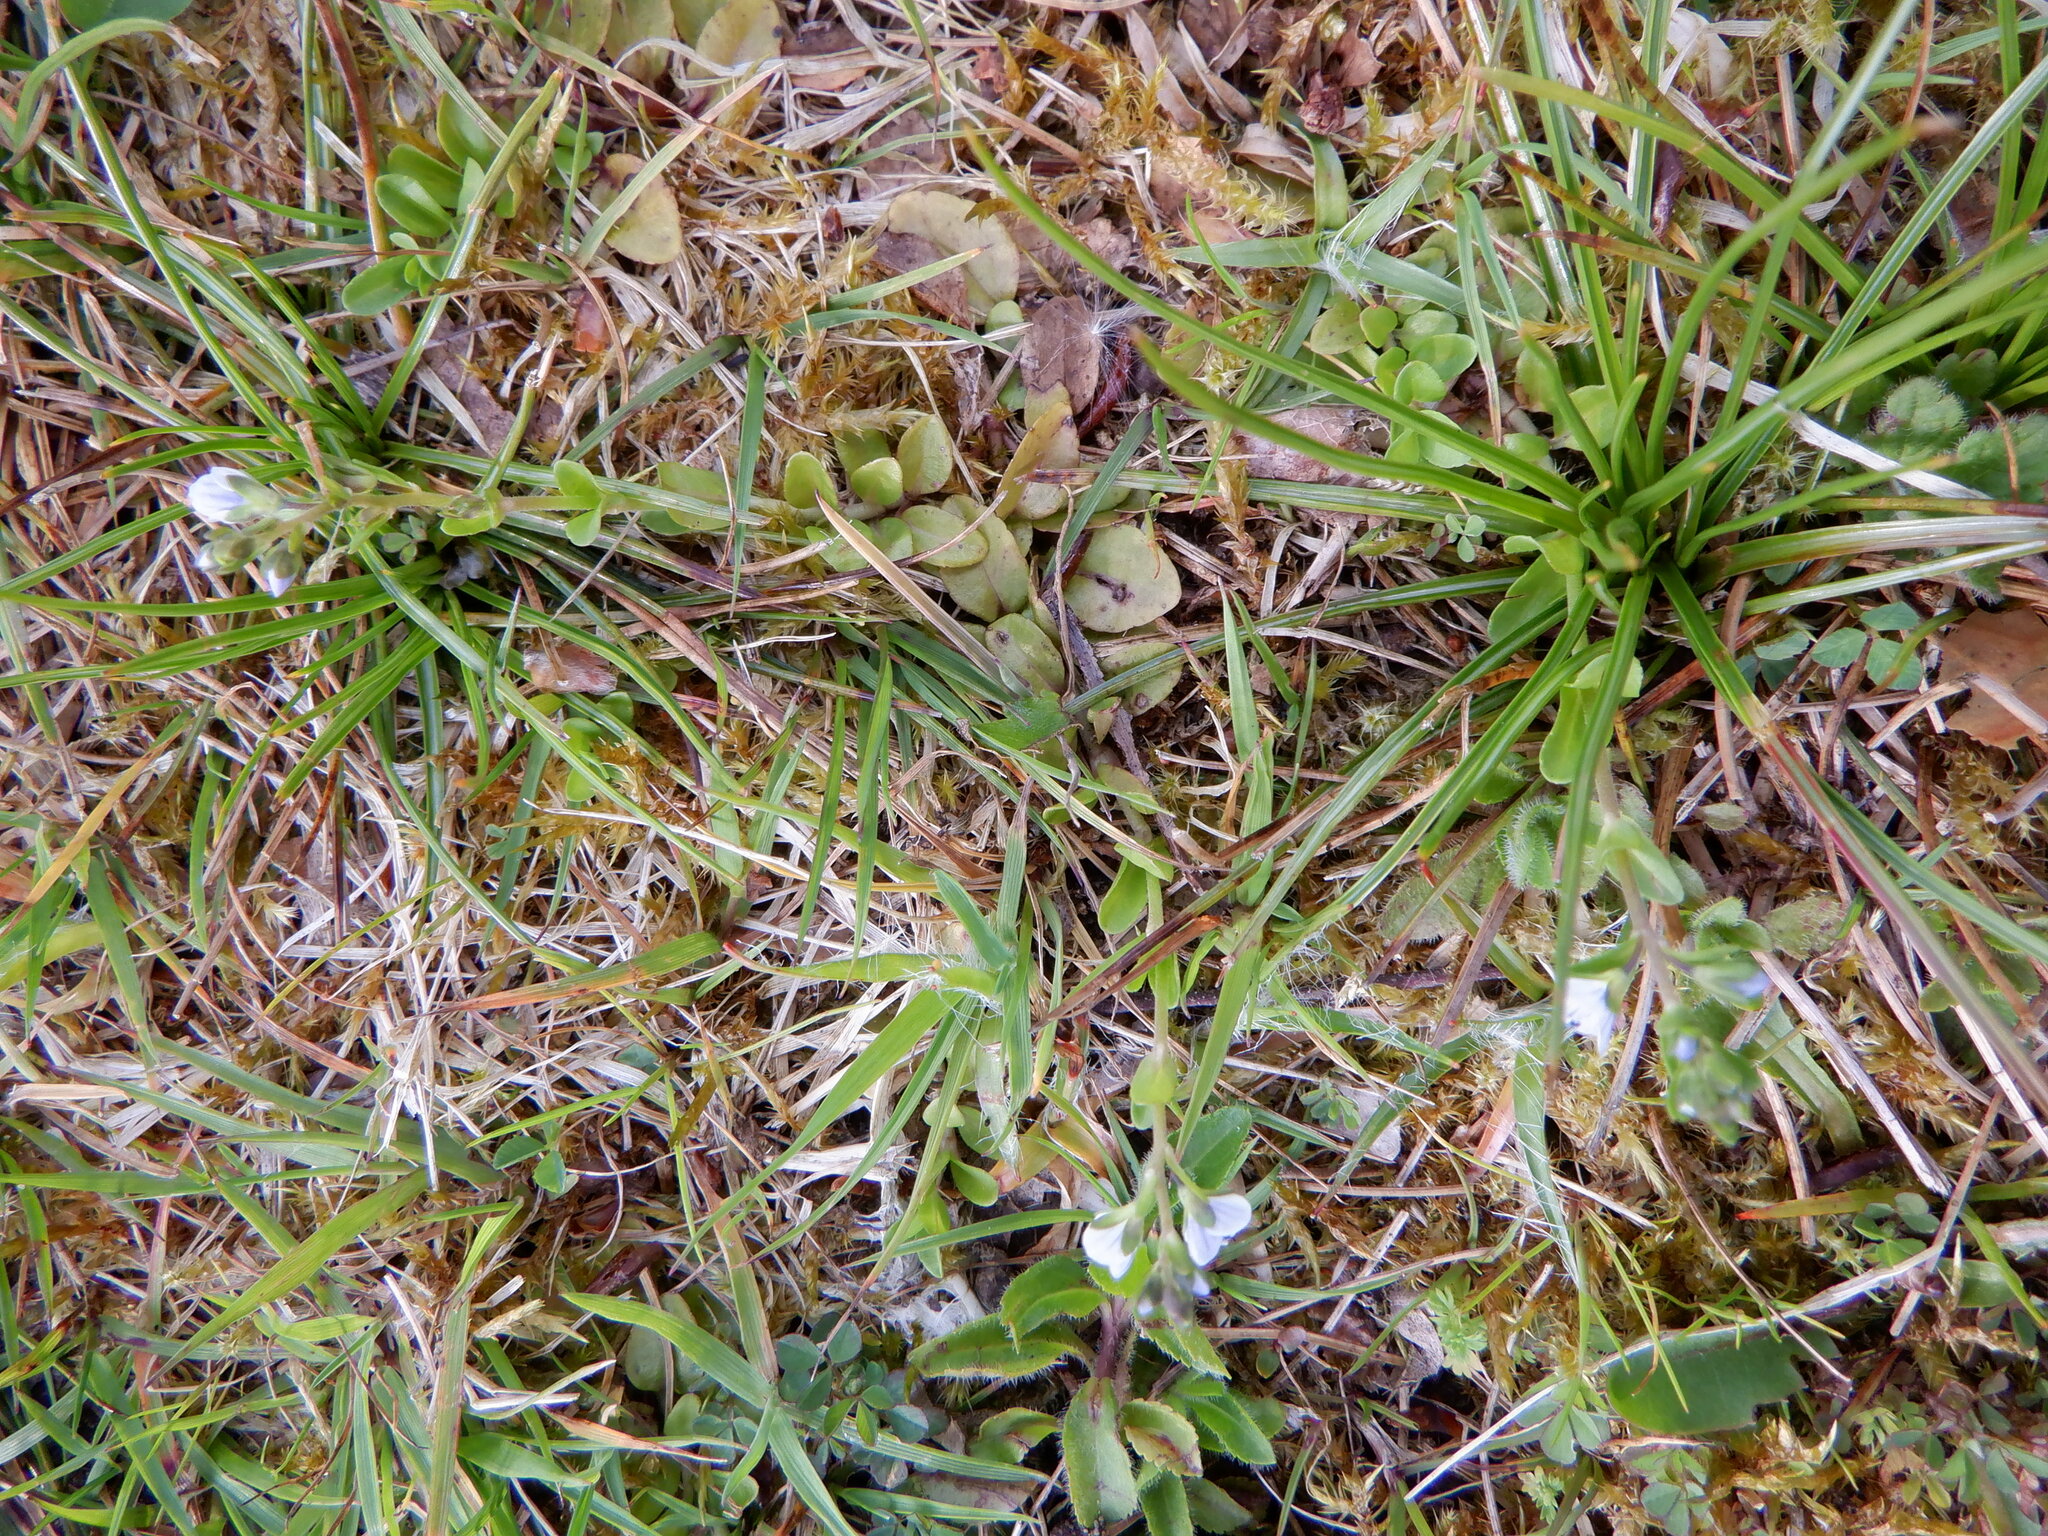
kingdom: Plantae
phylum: Tracheophyta
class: Magnoliopsida
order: Lamiales
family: Plantaginaceae
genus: Veronica
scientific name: Veronica serpyllifolia
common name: Thyme-leaved speedwell
